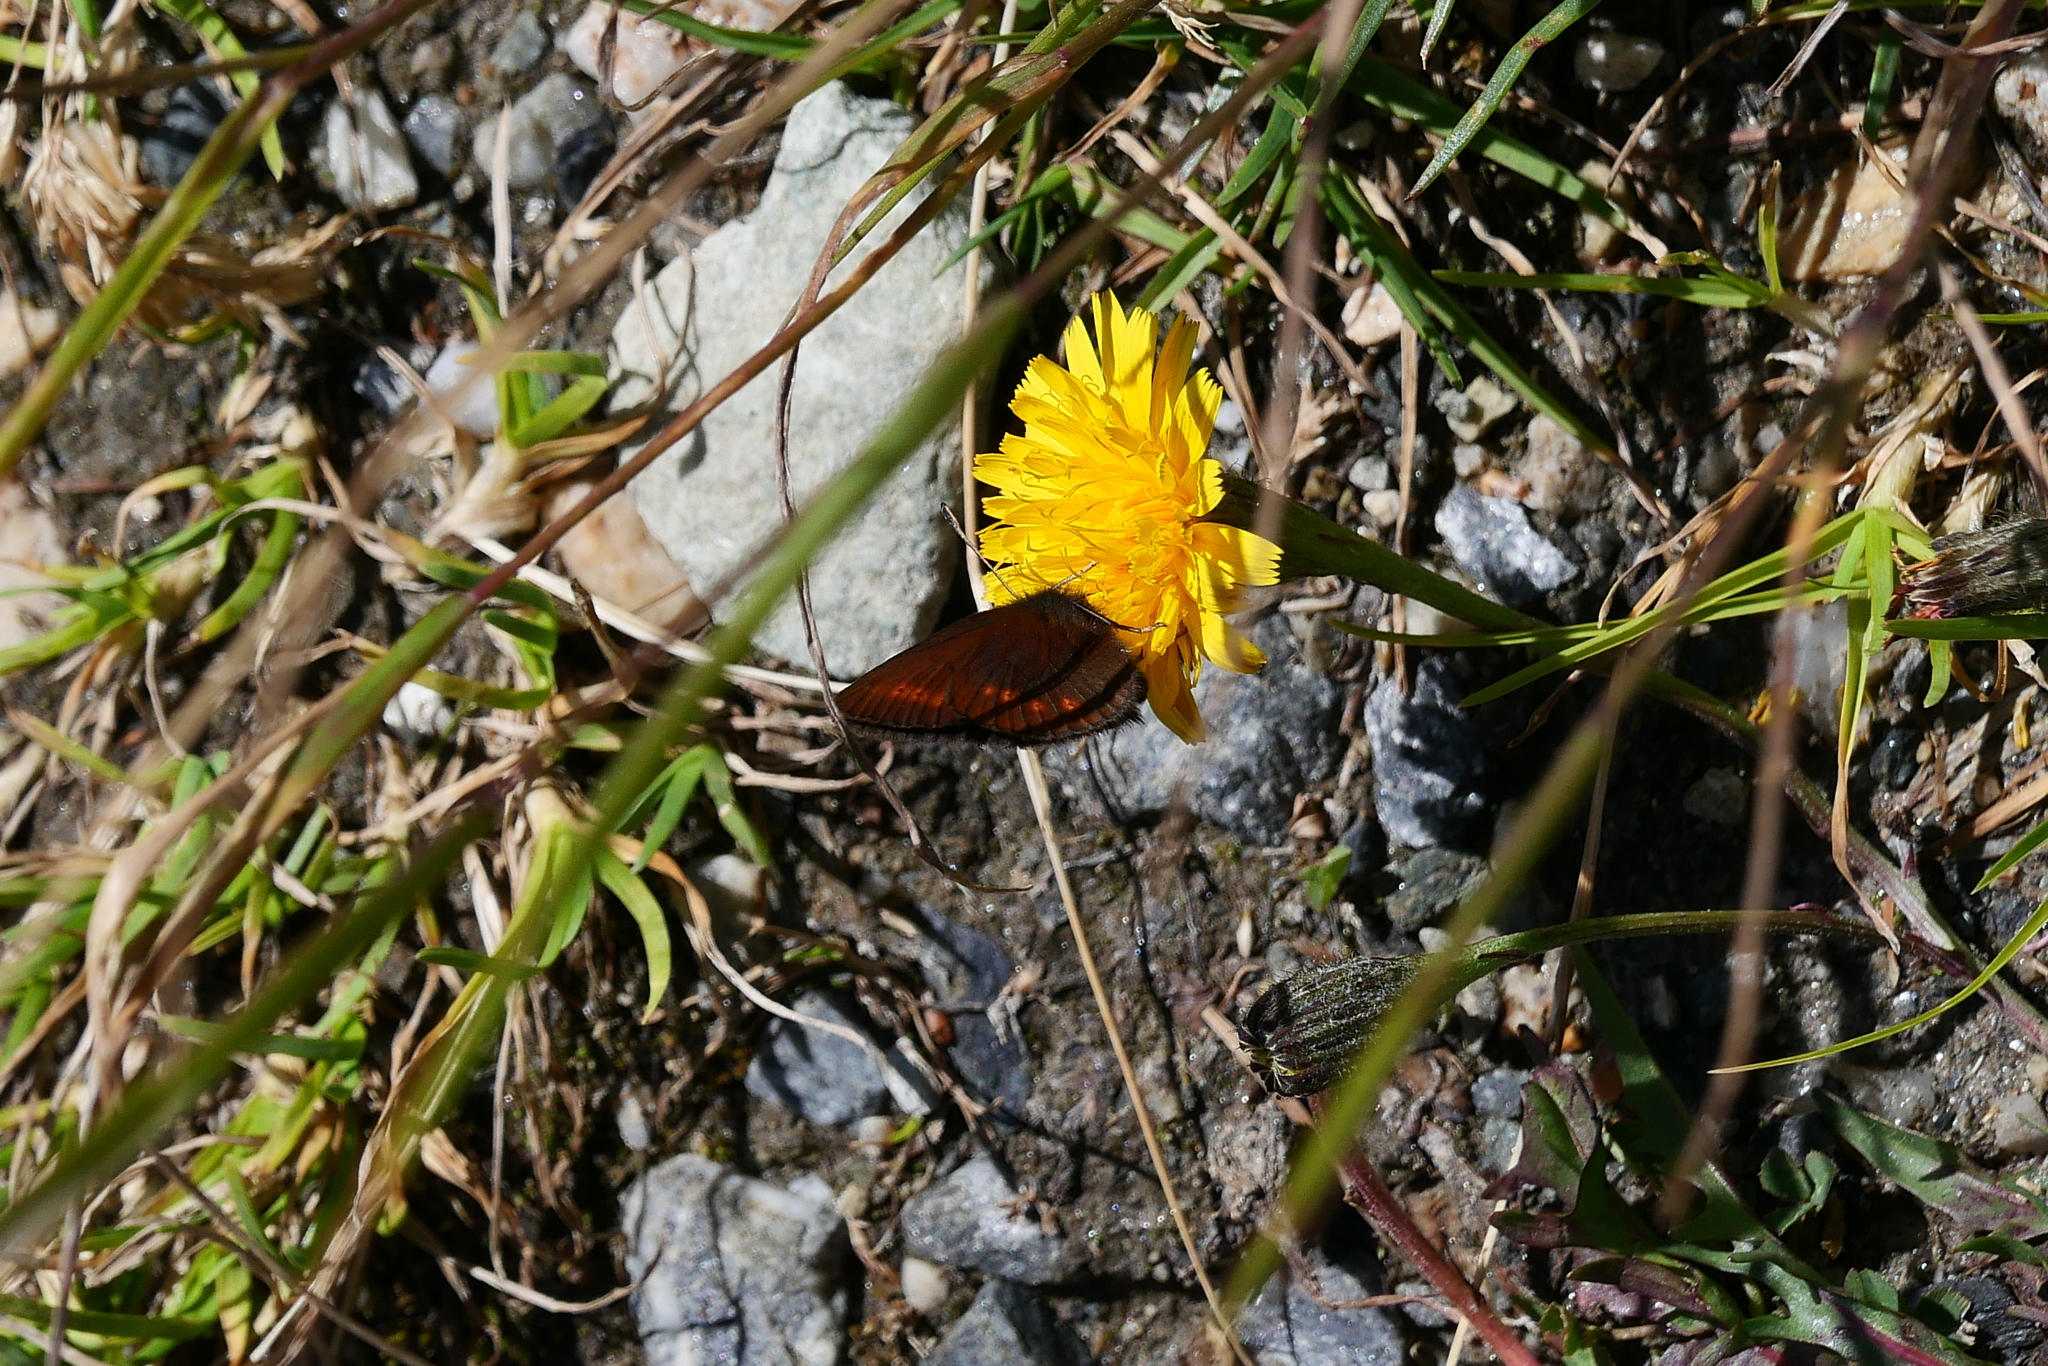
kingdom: Animalia
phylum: Arthropoda
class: Insecta
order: Lepidoptera
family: Nymphalidae
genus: Erebia
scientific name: Erebia melampus
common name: Lesser mountain ringlet
